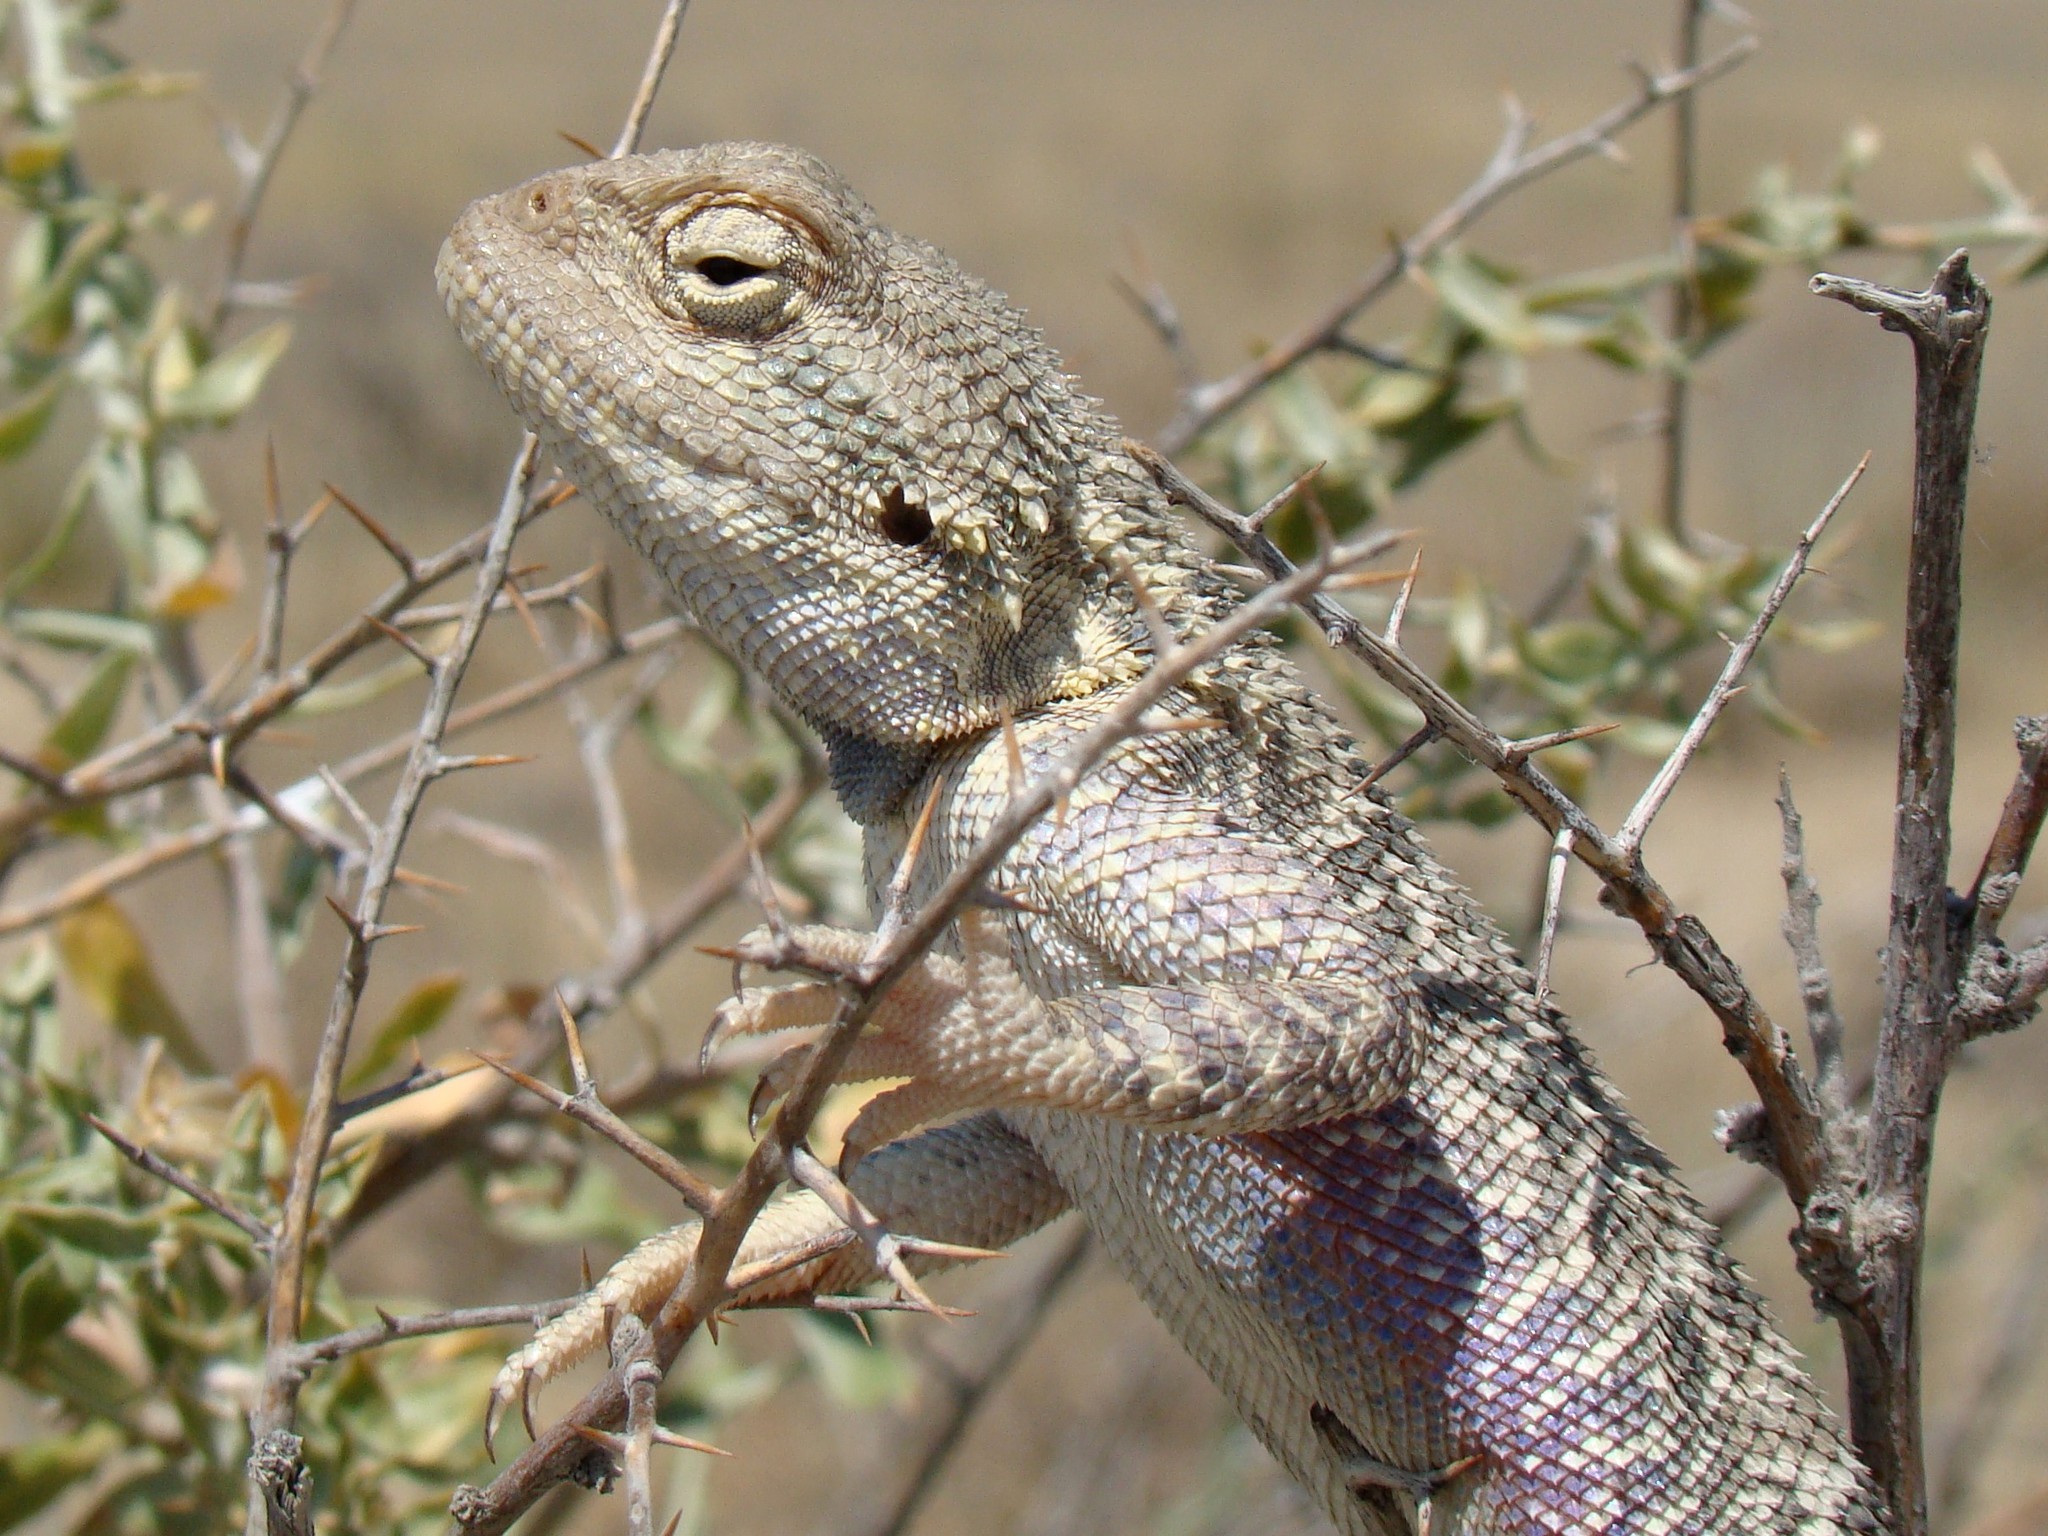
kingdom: Animalia
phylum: Chordata
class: Squamata
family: Agamidae
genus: Trapelus
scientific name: Trapelus sanguinolentus
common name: Steppe agama
